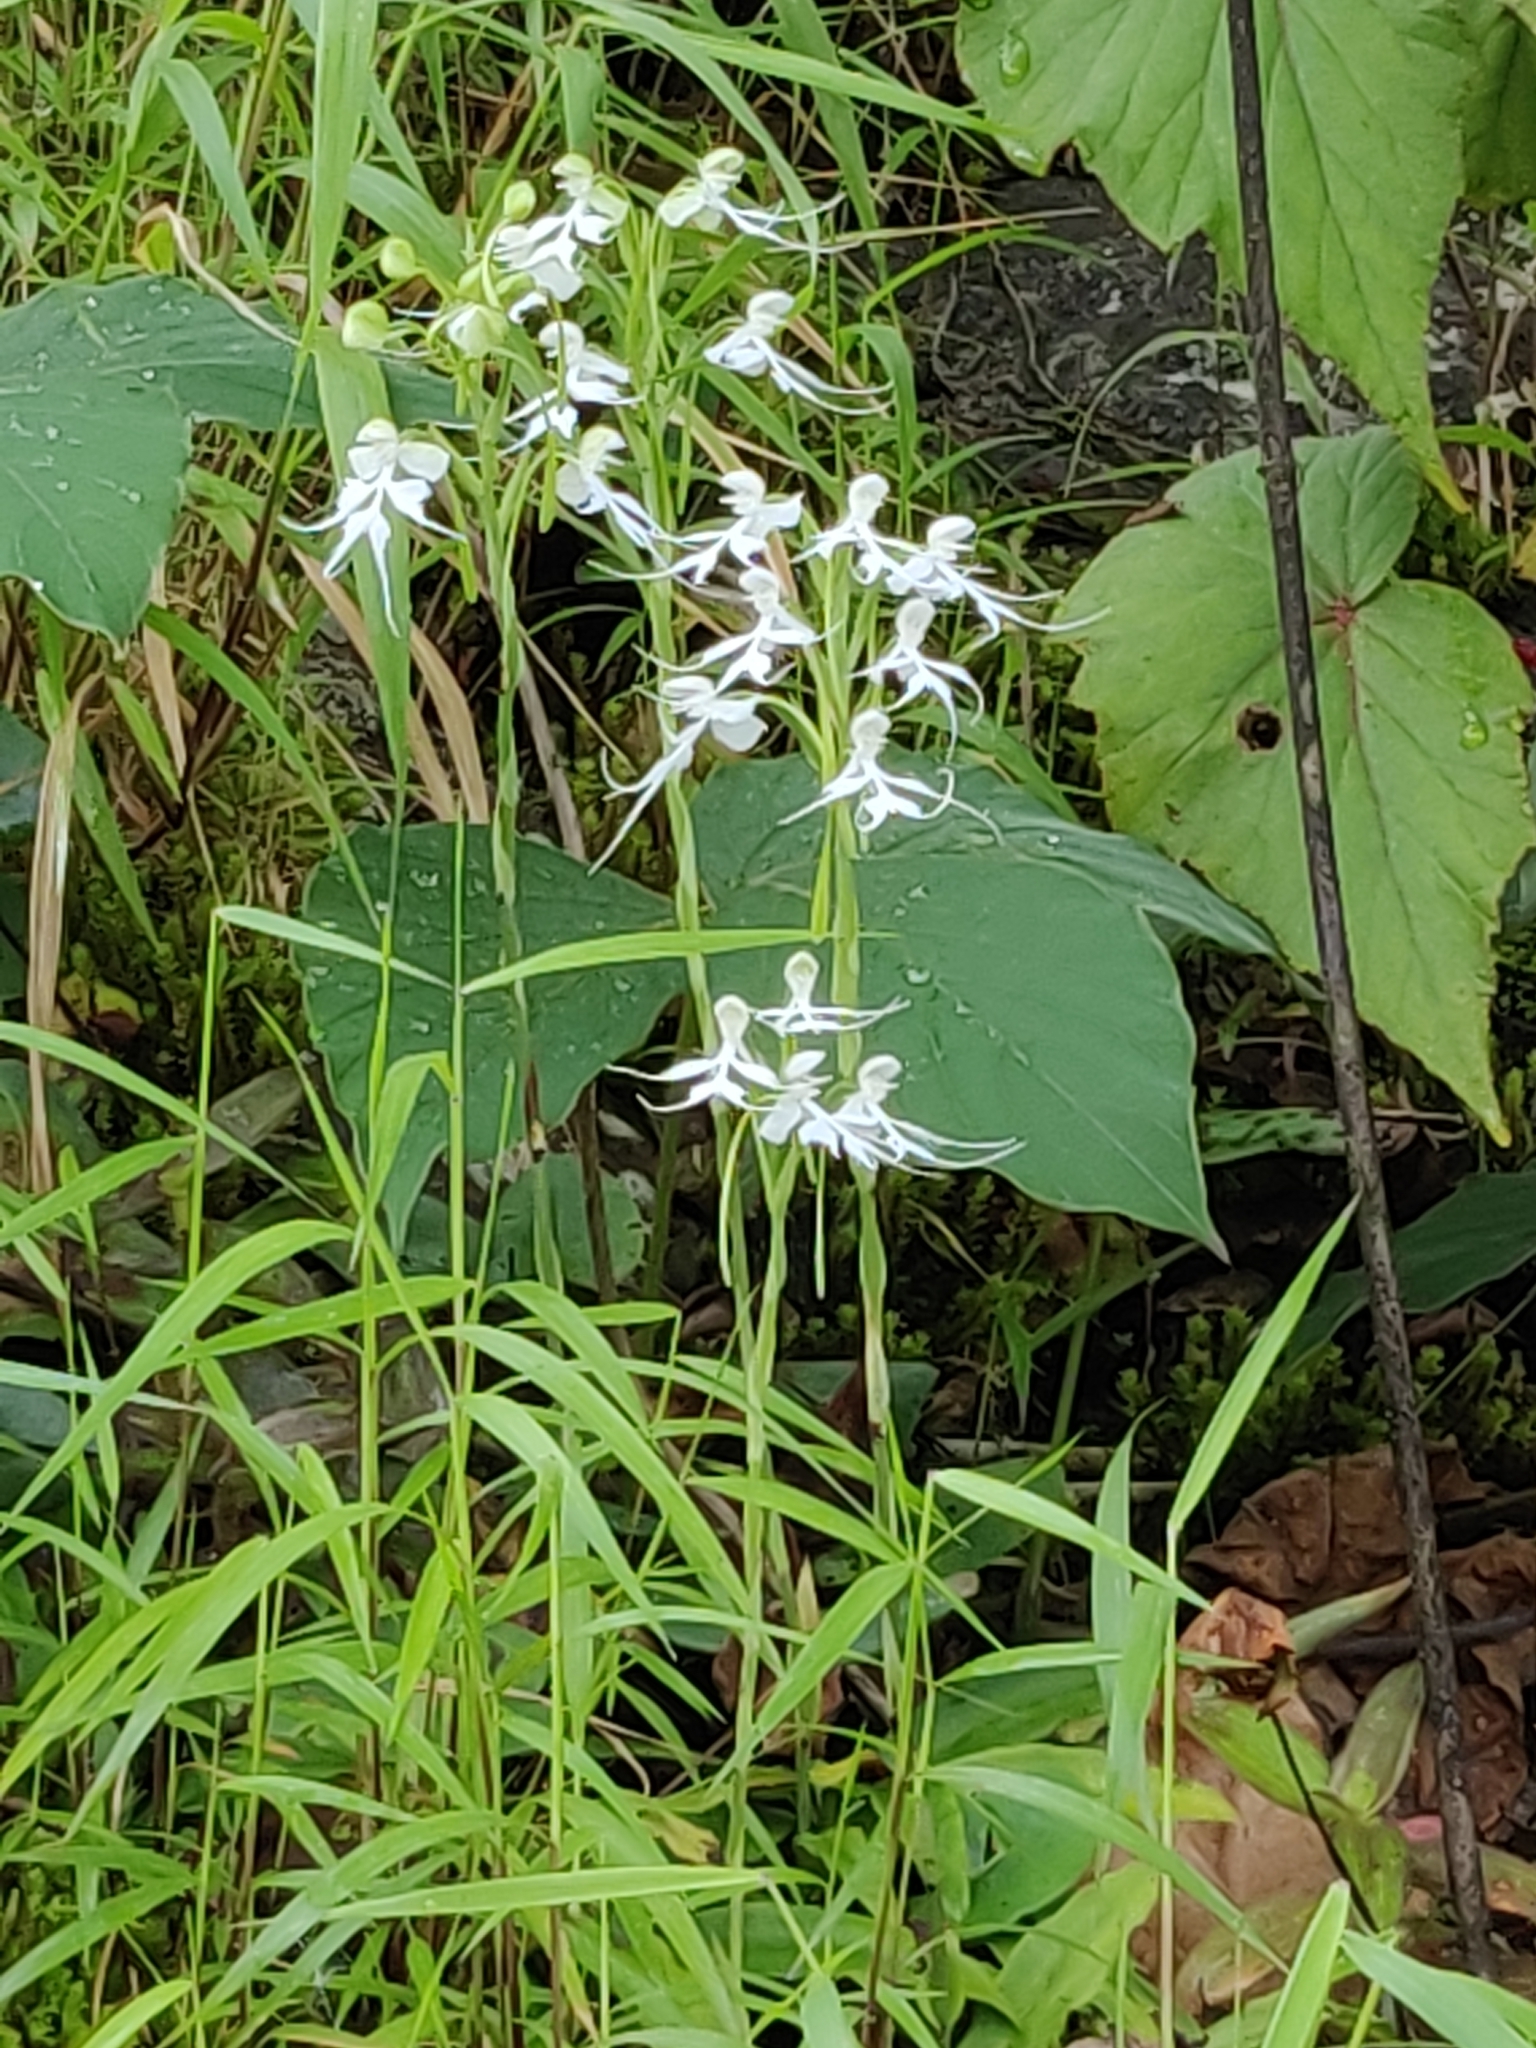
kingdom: Plantae
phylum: Tracheophyta
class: Liliopsida
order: Asparagales
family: Orchidaceae
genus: Habenaria
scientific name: Habenaria crinifera
